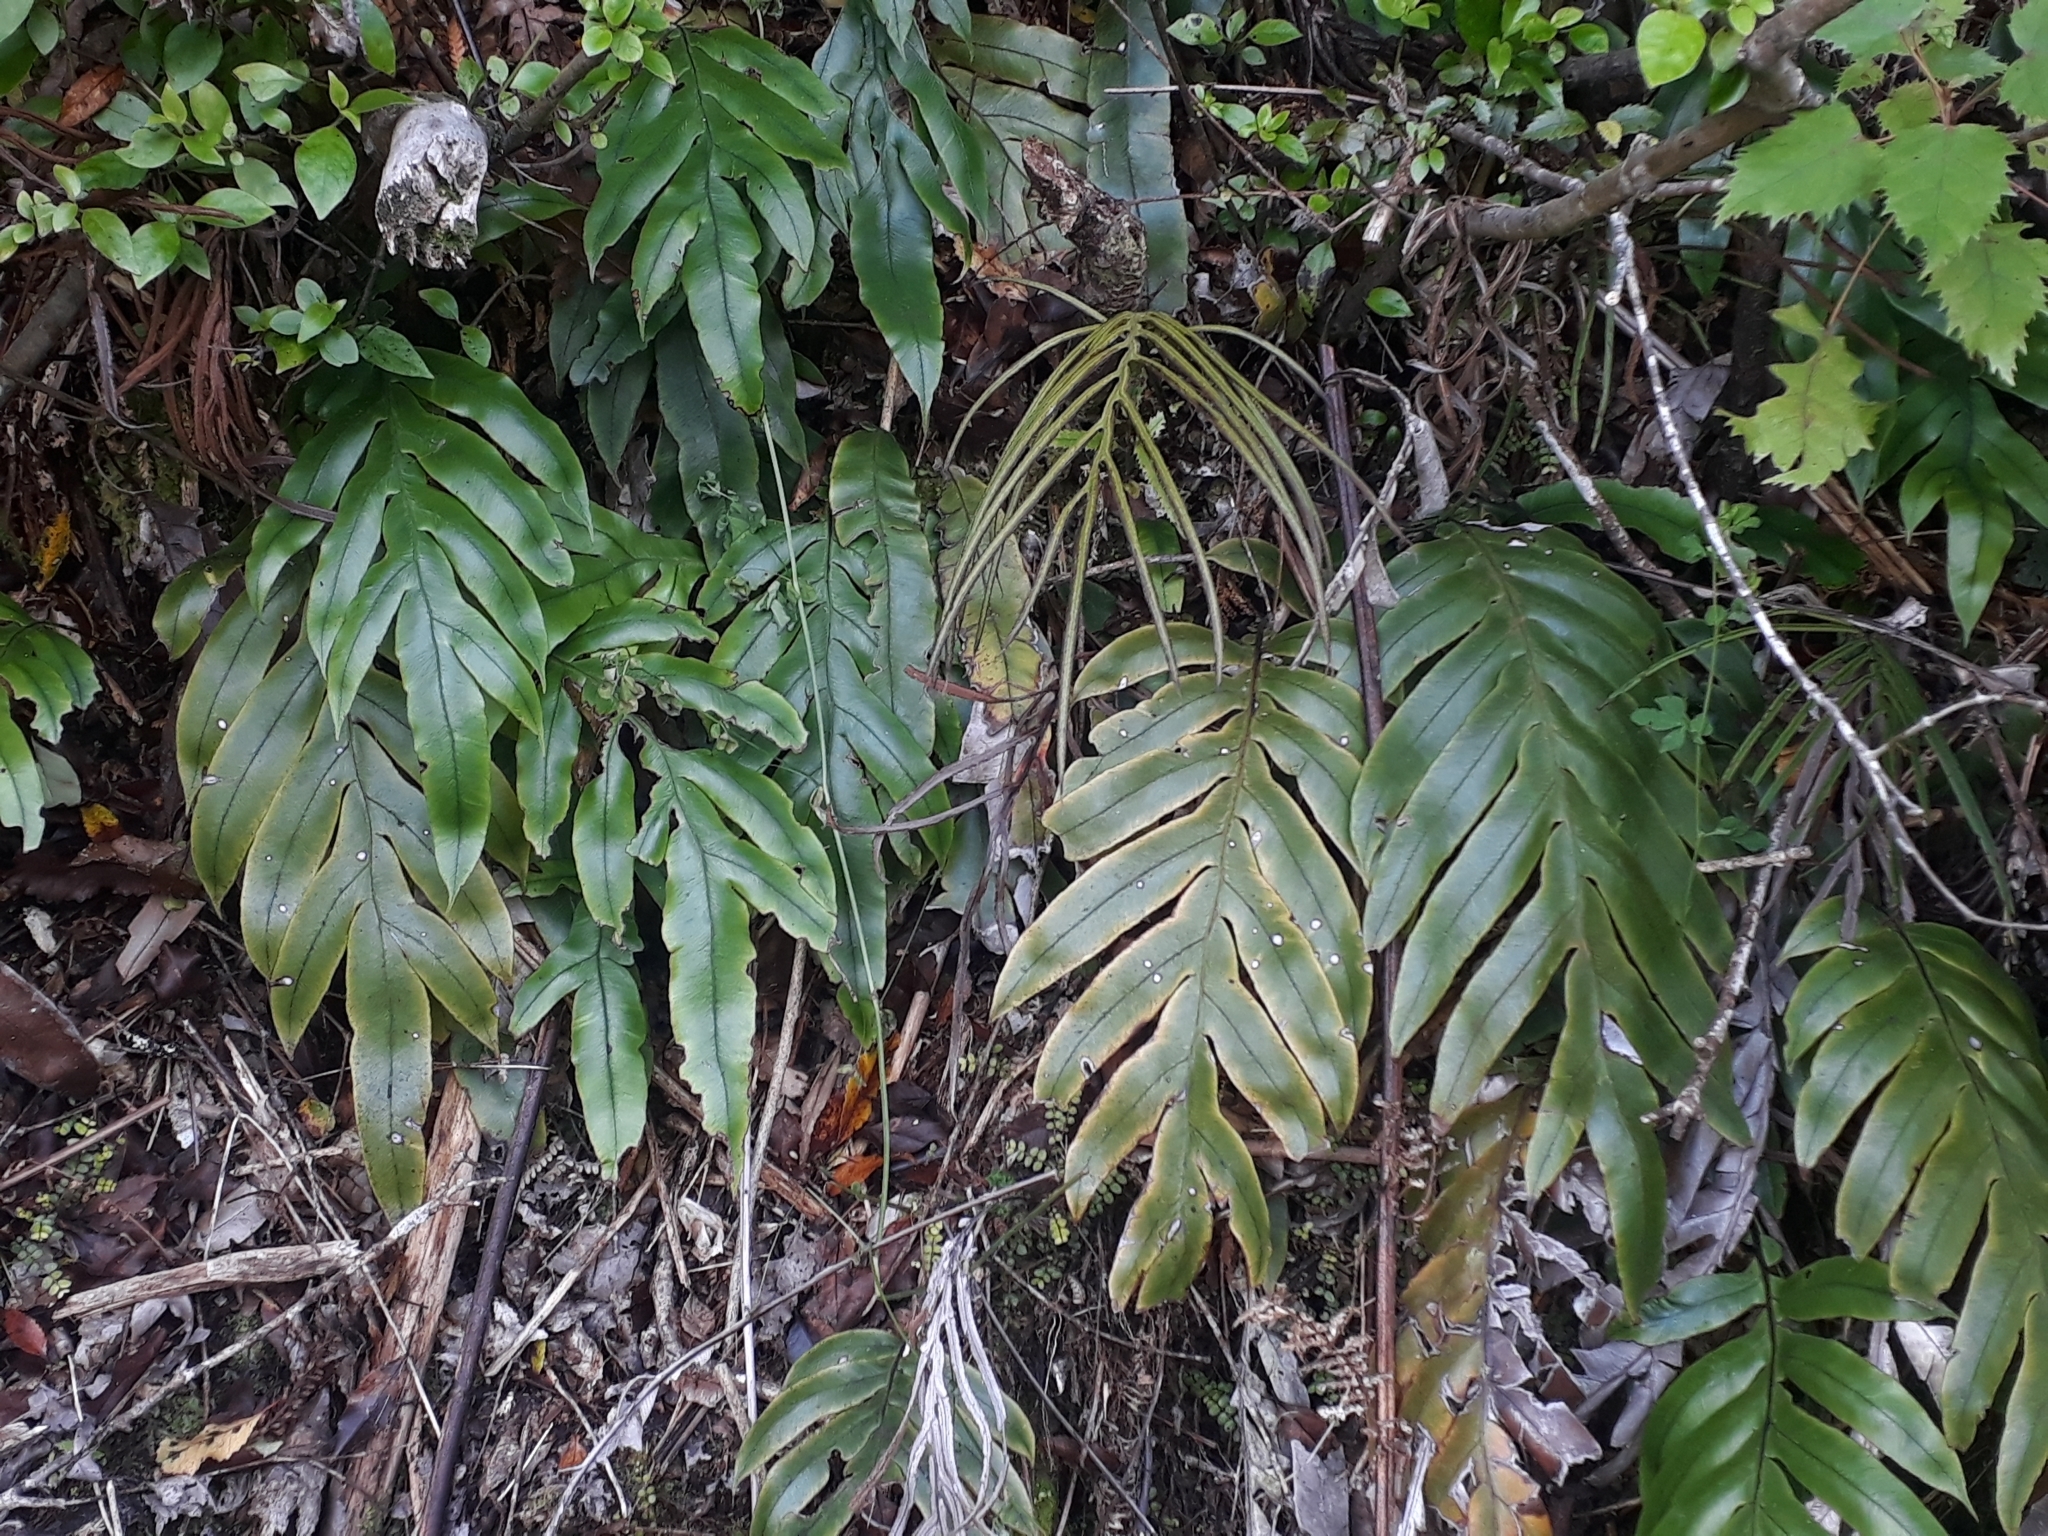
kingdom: Plantae
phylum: Tracheophyta
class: Polypodiopsida
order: Polypodiales
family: Blechnaceae
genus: Austroblechnum
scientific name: Austroblechnum colensoi
